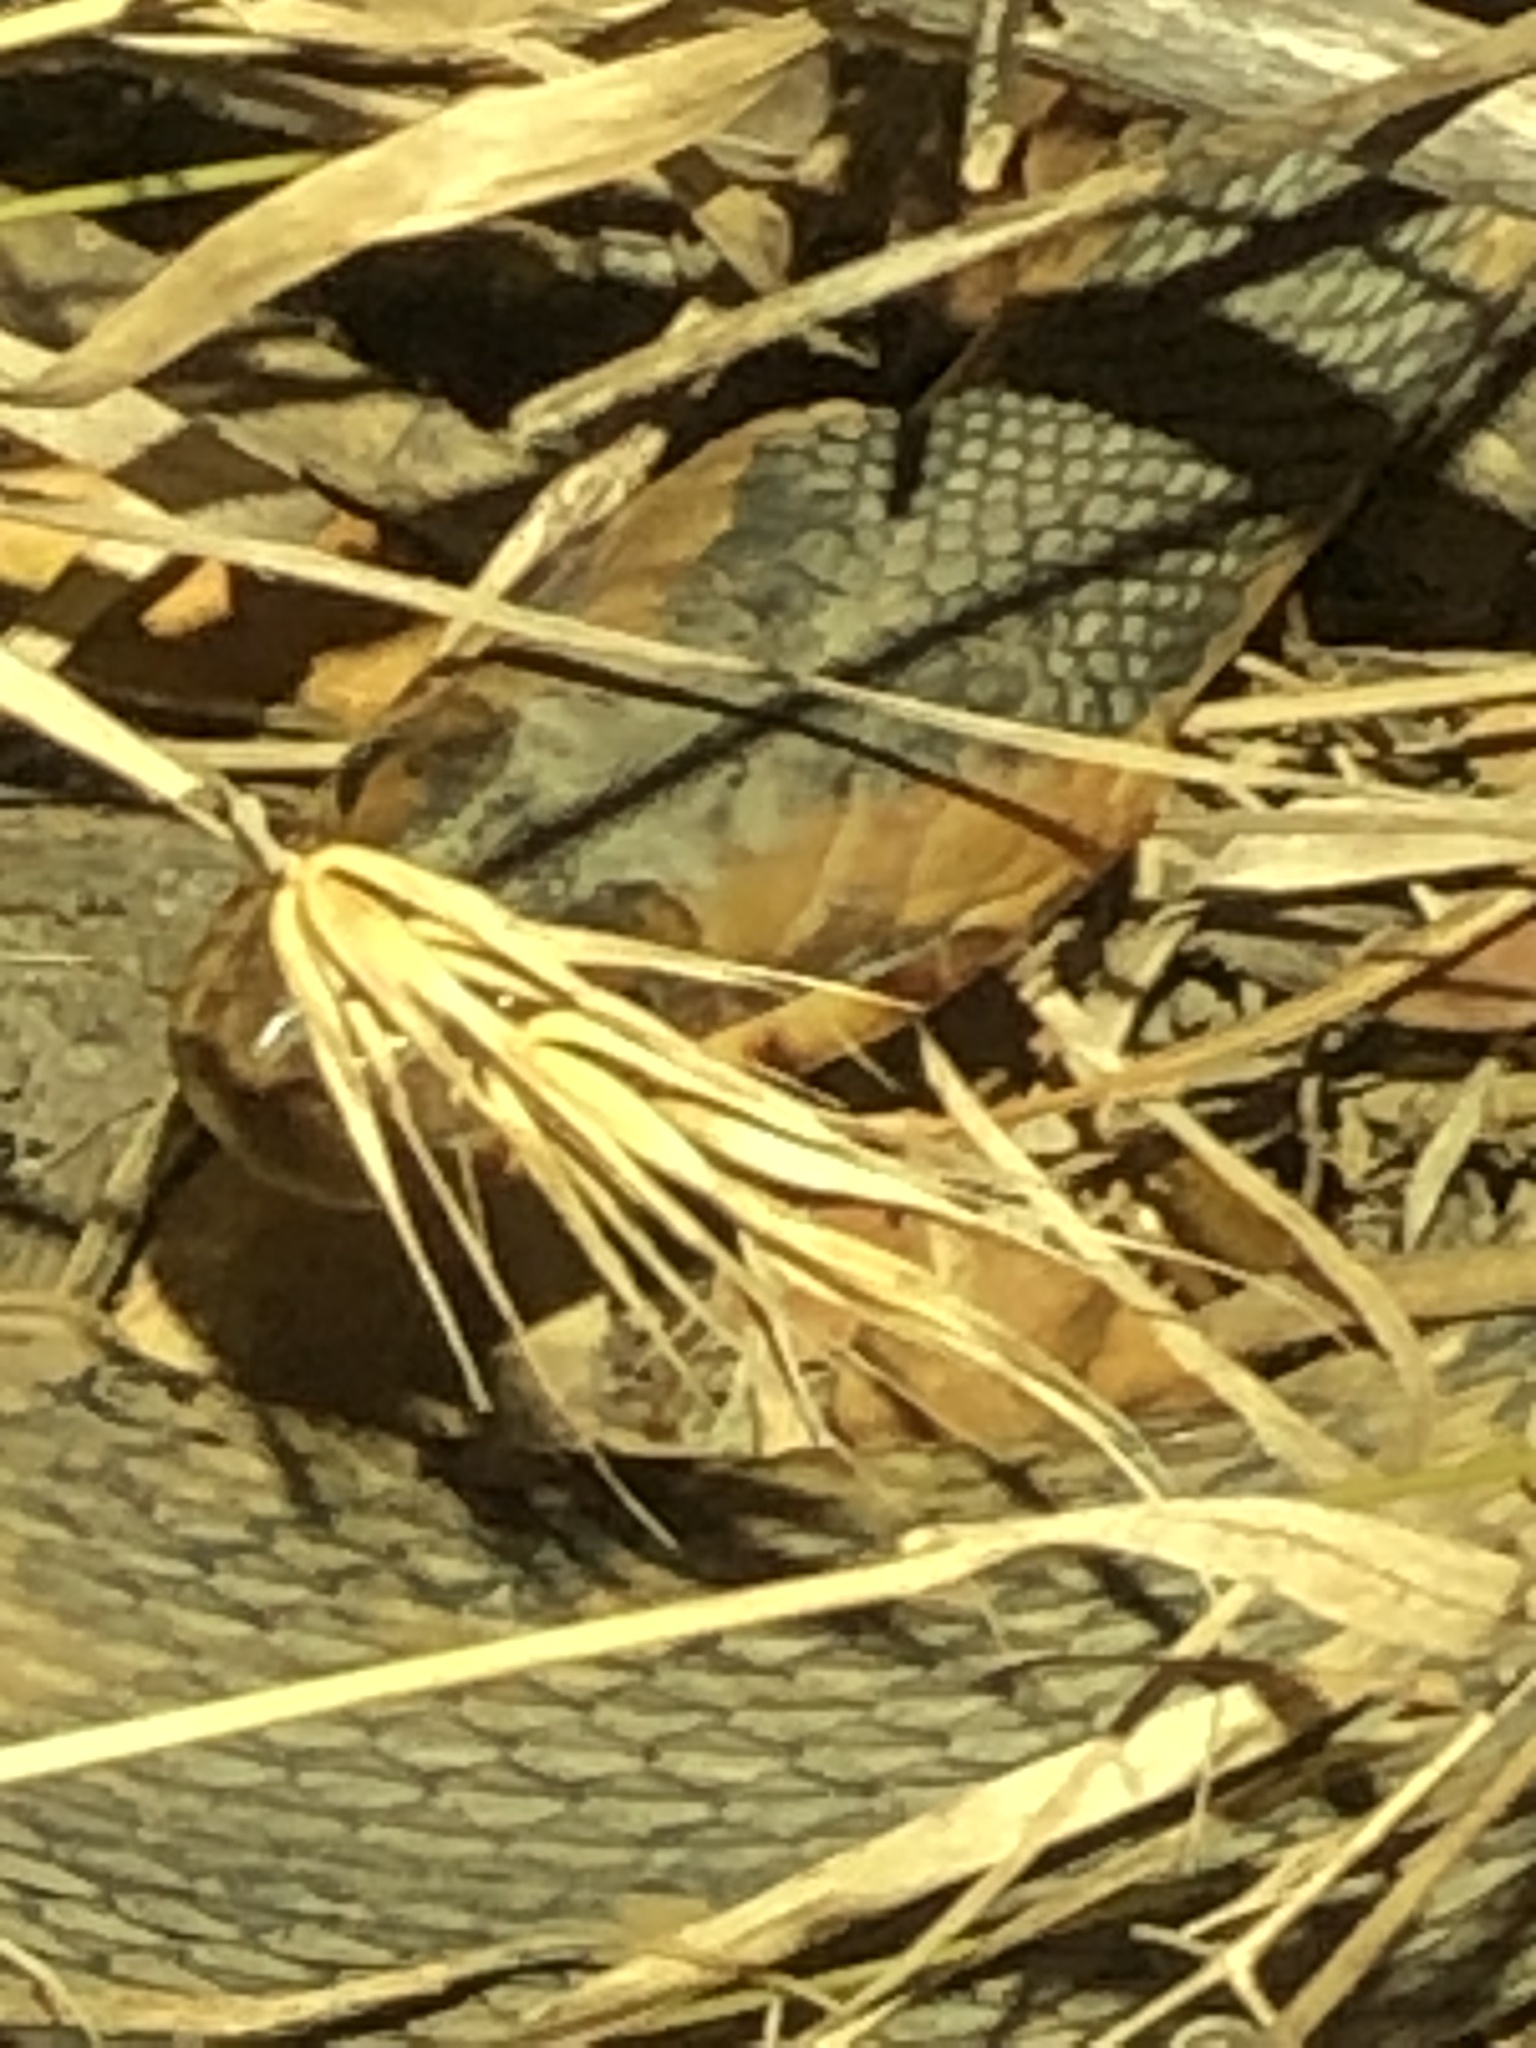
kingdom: Animalia
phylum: Chordata
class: Squamata
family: Colubridae
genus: Nerodia
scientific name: Nerodia fasciata
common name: Southern water snake
